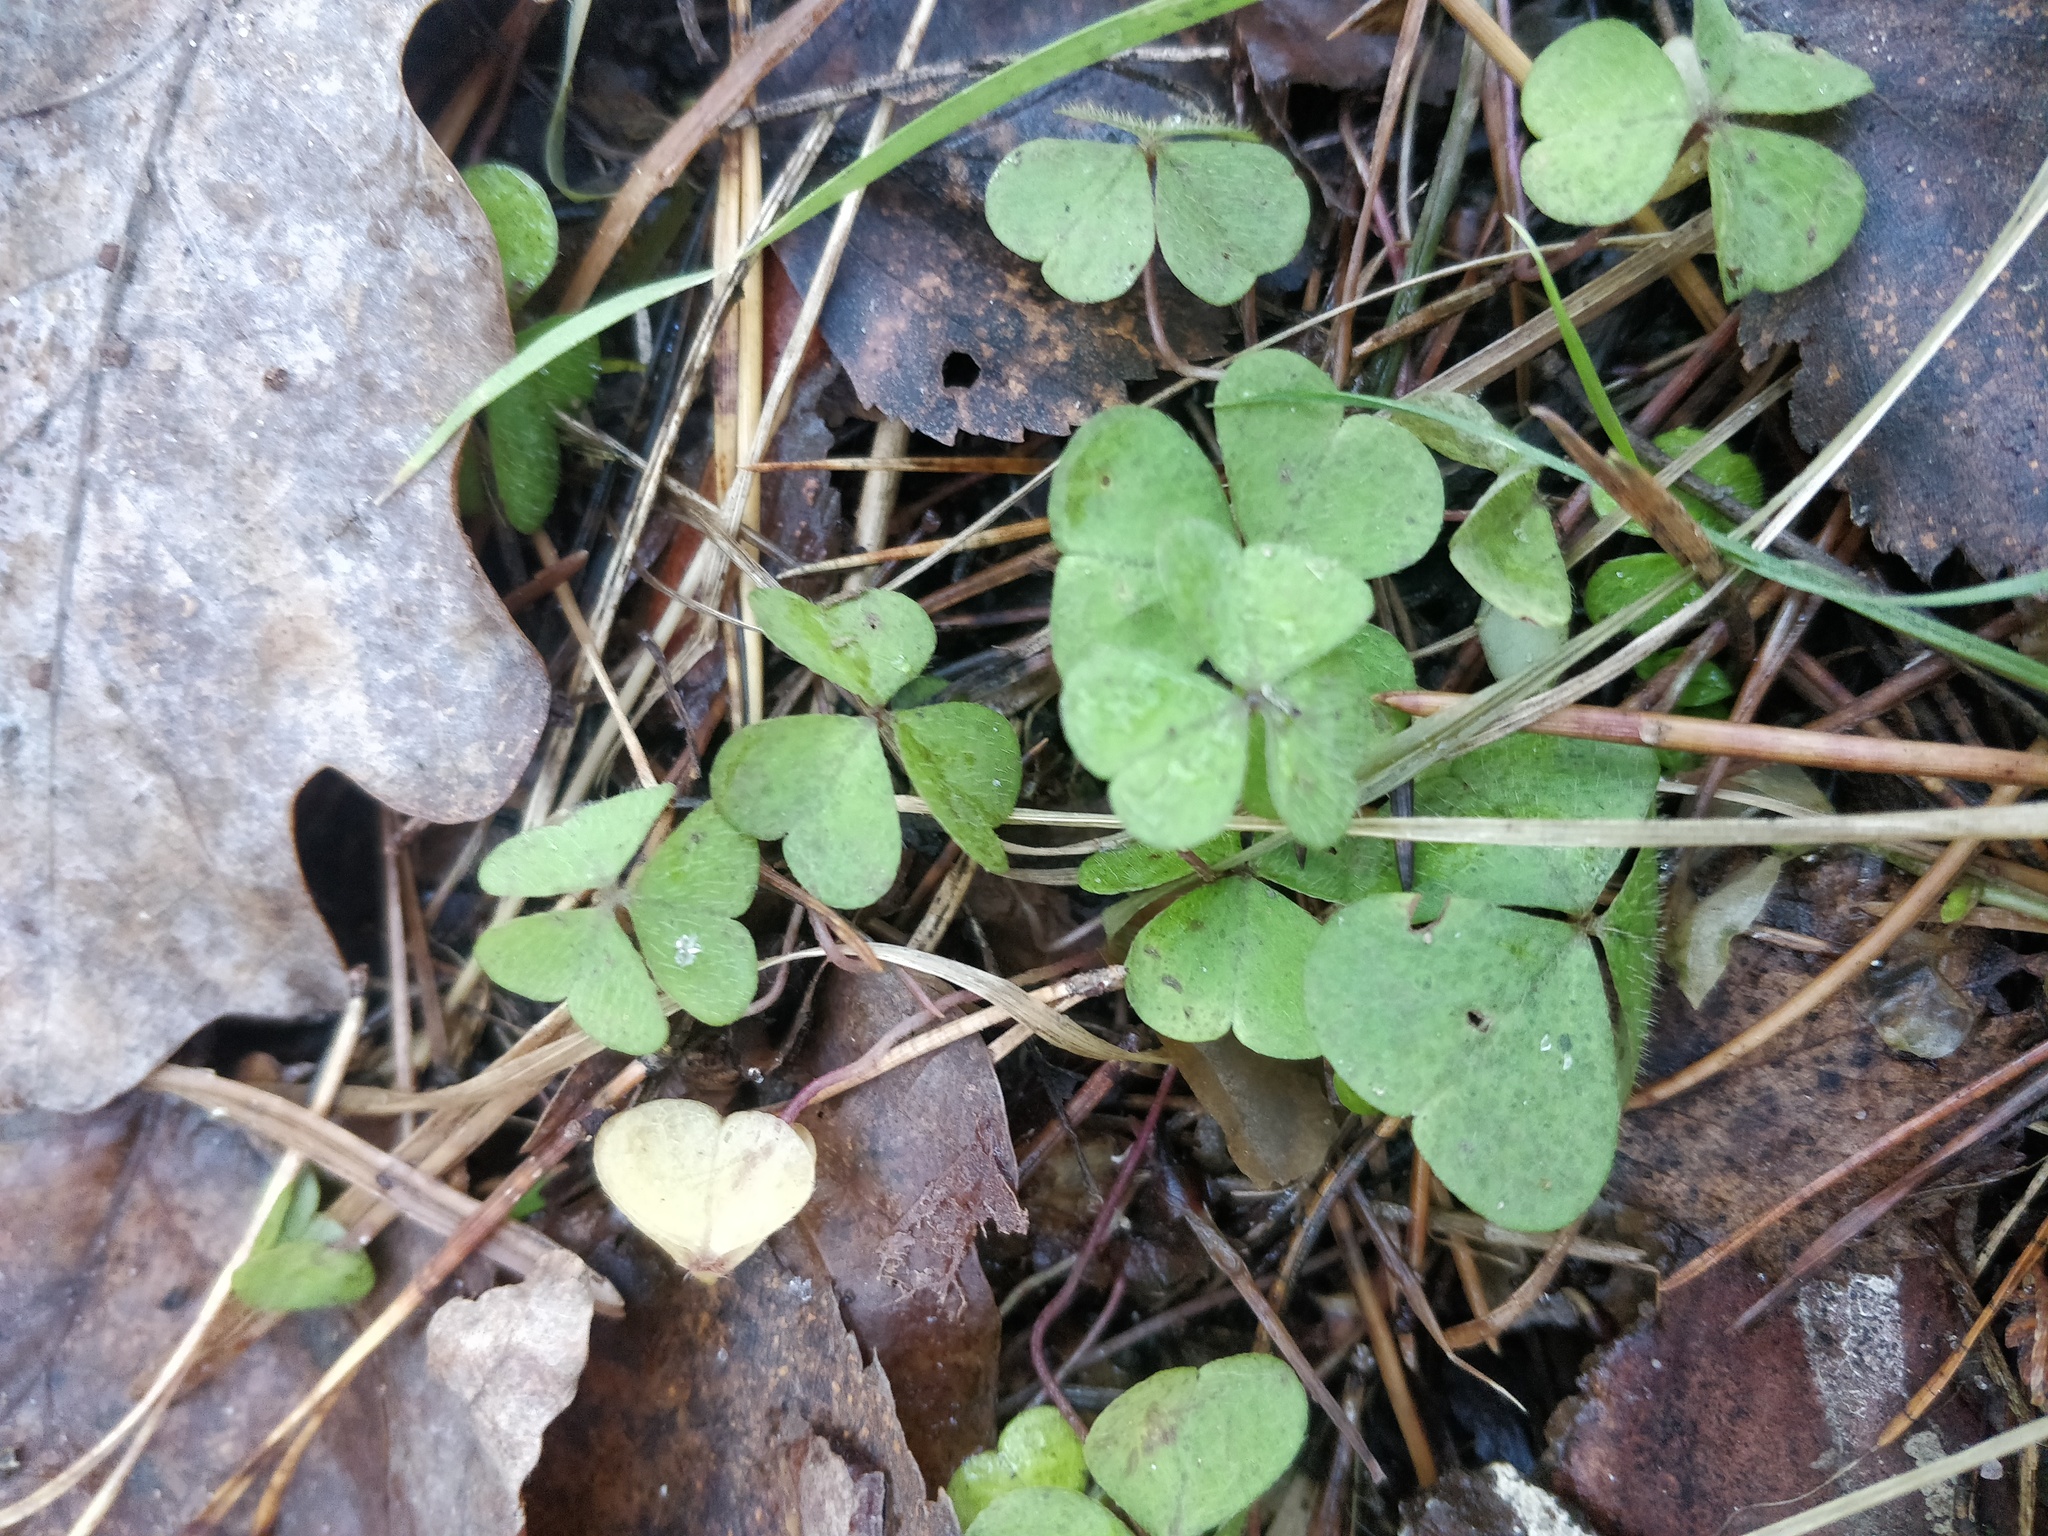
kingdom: Plantae
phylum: Tracheophyta
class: Magnoliopsida
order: Oxalidales
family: Oxalidaceae
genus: Oxalis
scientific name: Oxalis acetosella
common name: Wood-sorrel
